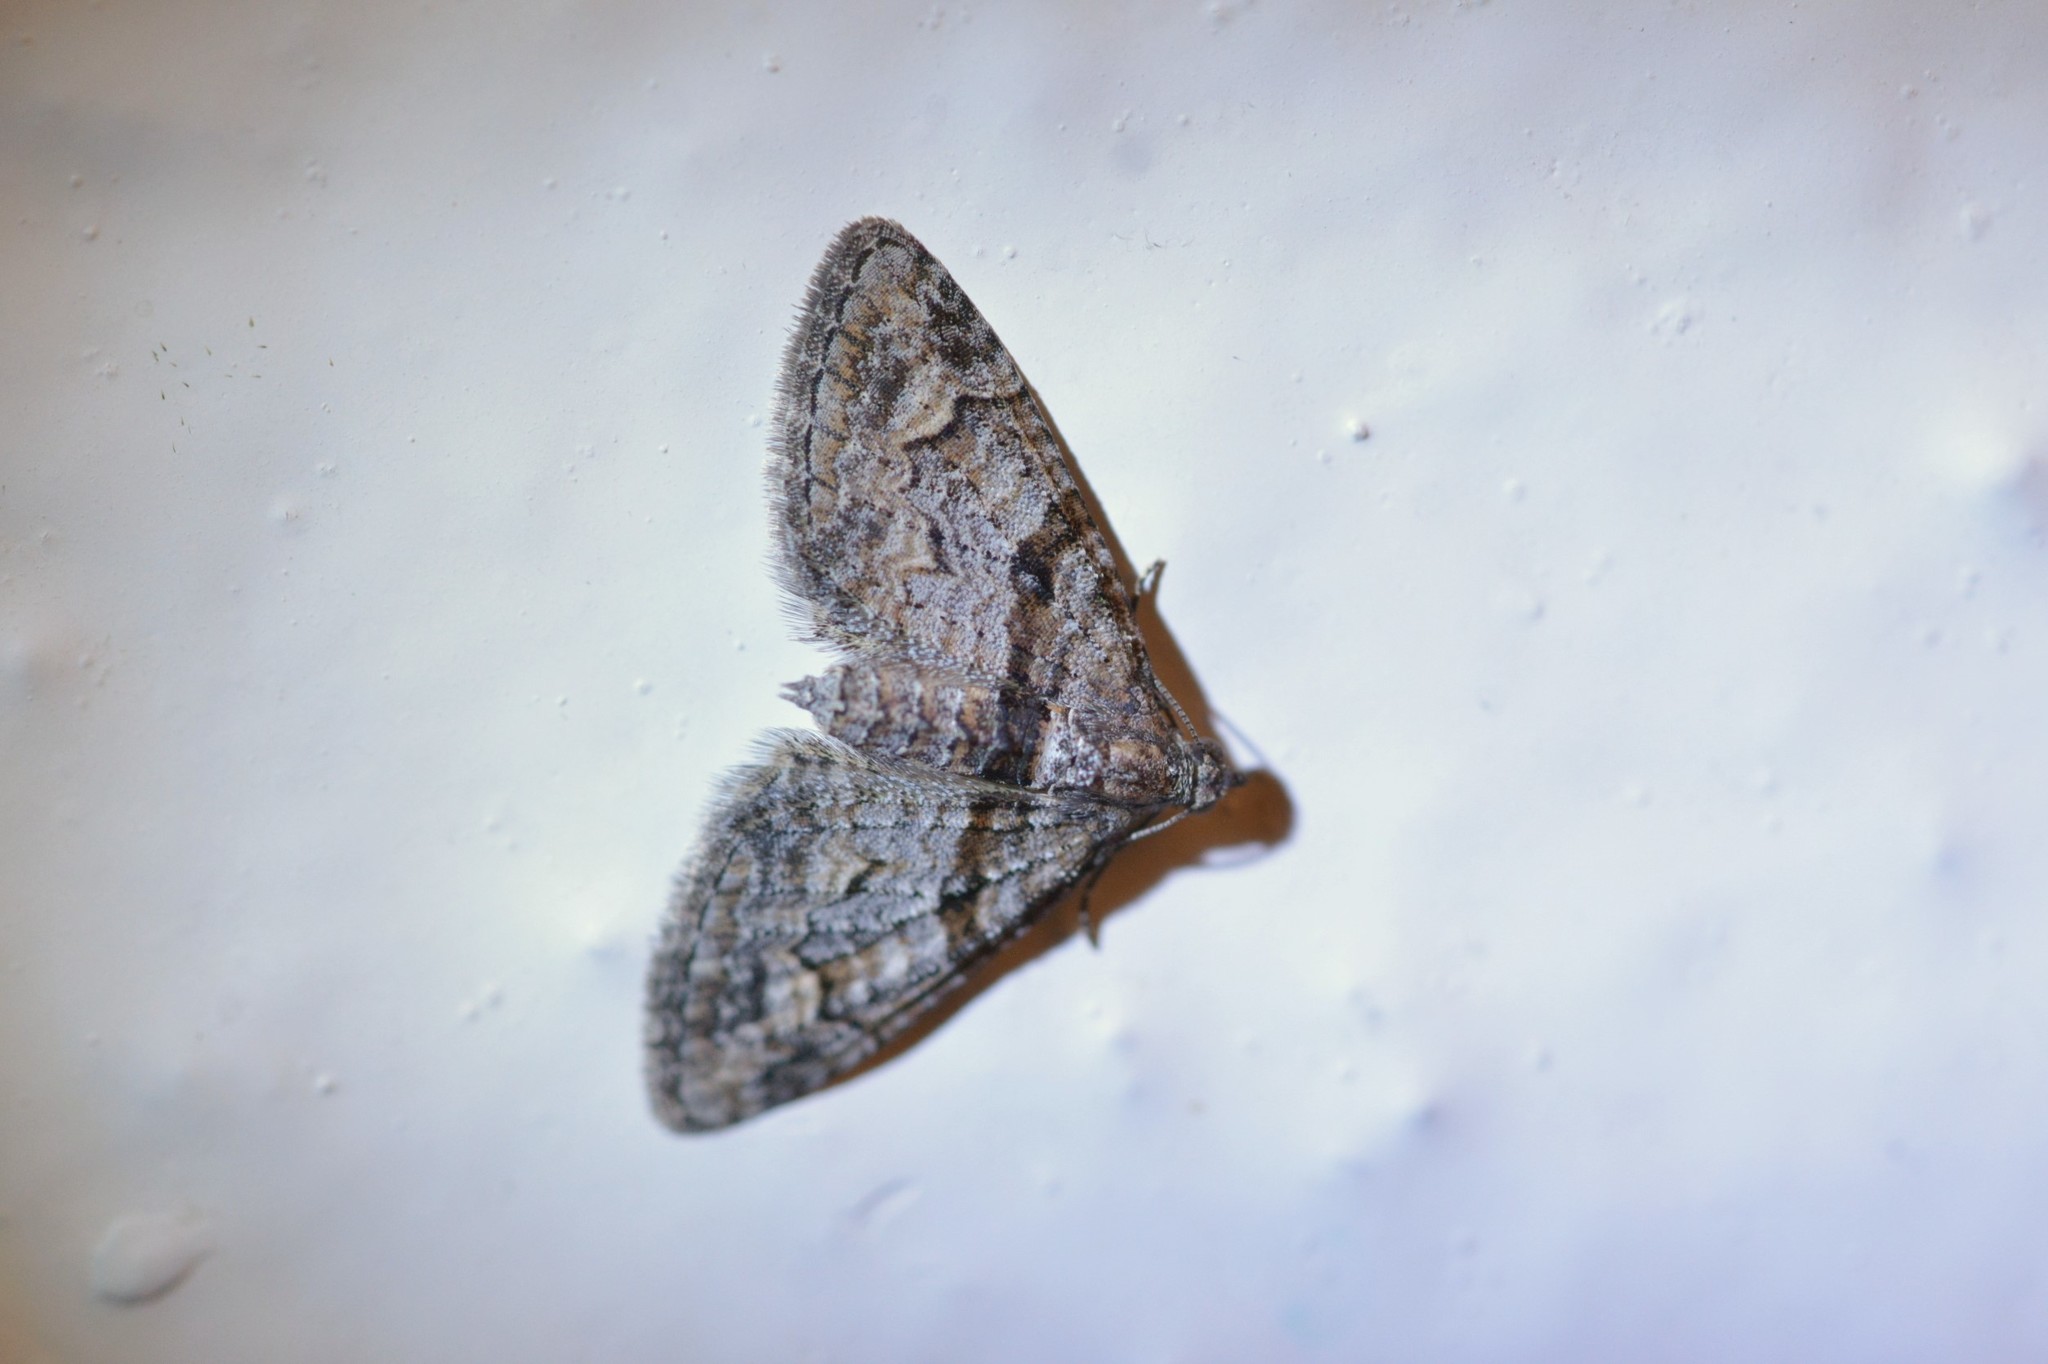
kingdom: Animalia
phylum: Arthropoda
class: Insecta
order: Lepidoptera
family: Geometridae
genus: Phrissogonus
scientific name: Phrissogonus laticostata
